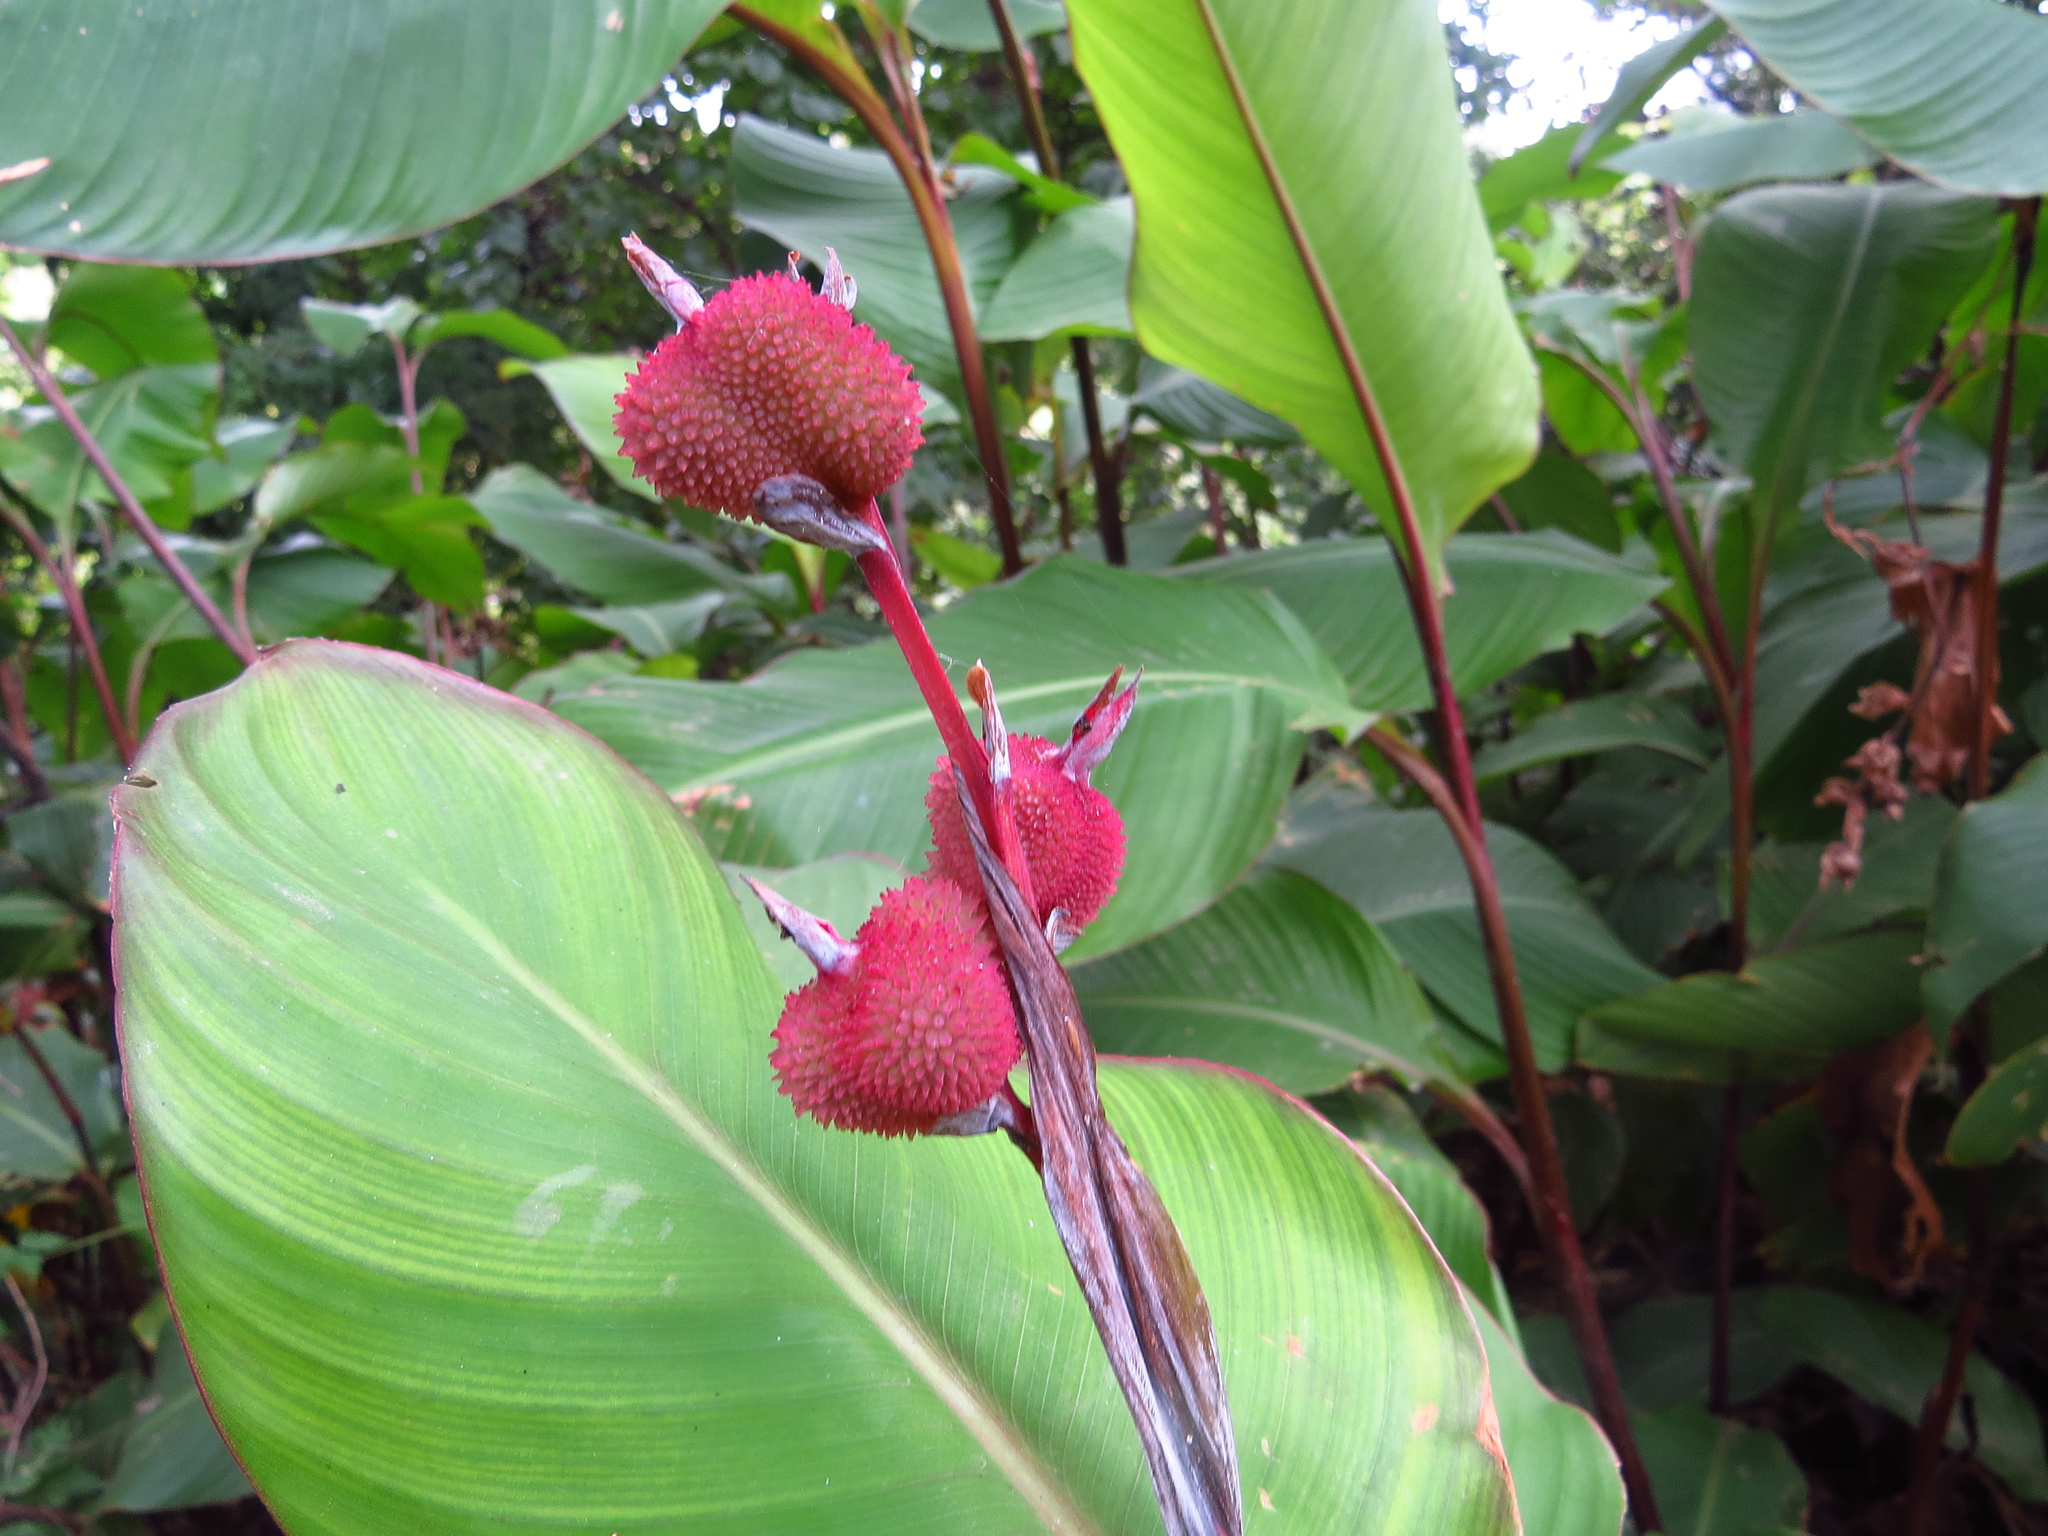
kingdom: Plantae
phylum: Tracheophyta
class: Liliopsida
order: Zingiberales
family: Cannaceae
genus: Canna
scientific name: Canna indica
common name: Indian shot
